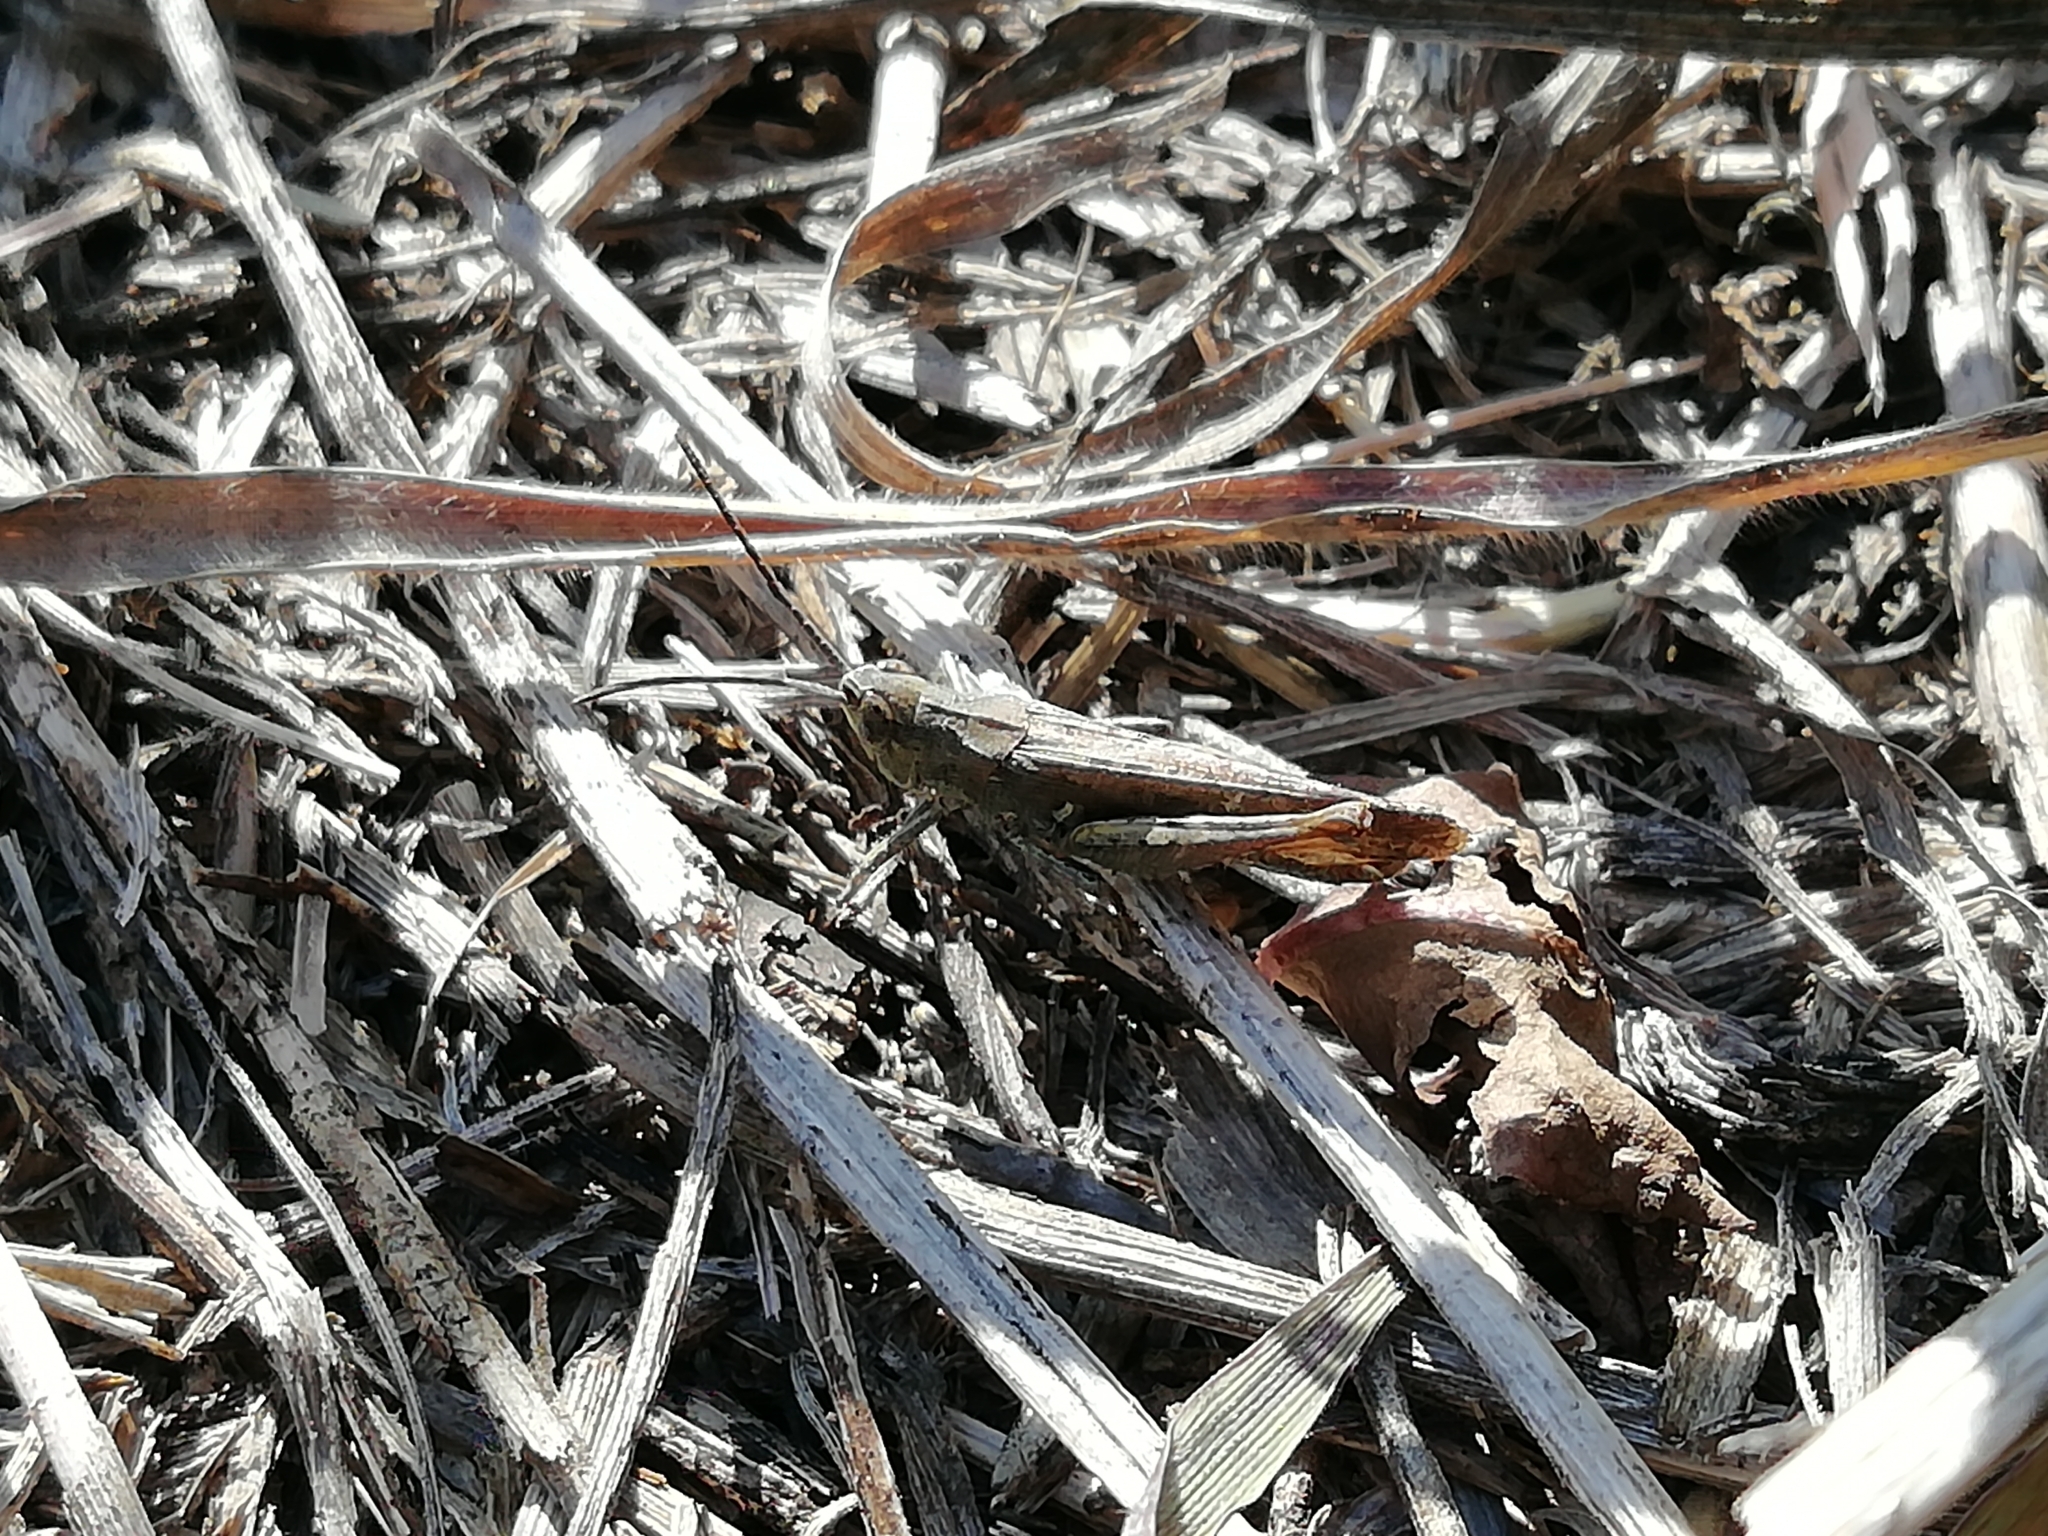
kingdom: Animalia
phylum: Arthropoda
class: Insecta
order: Orthoptera
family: Acrididae
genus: Chorthippus
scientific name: Chorthippus biguttulus
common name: Bow-winged grasshopper
